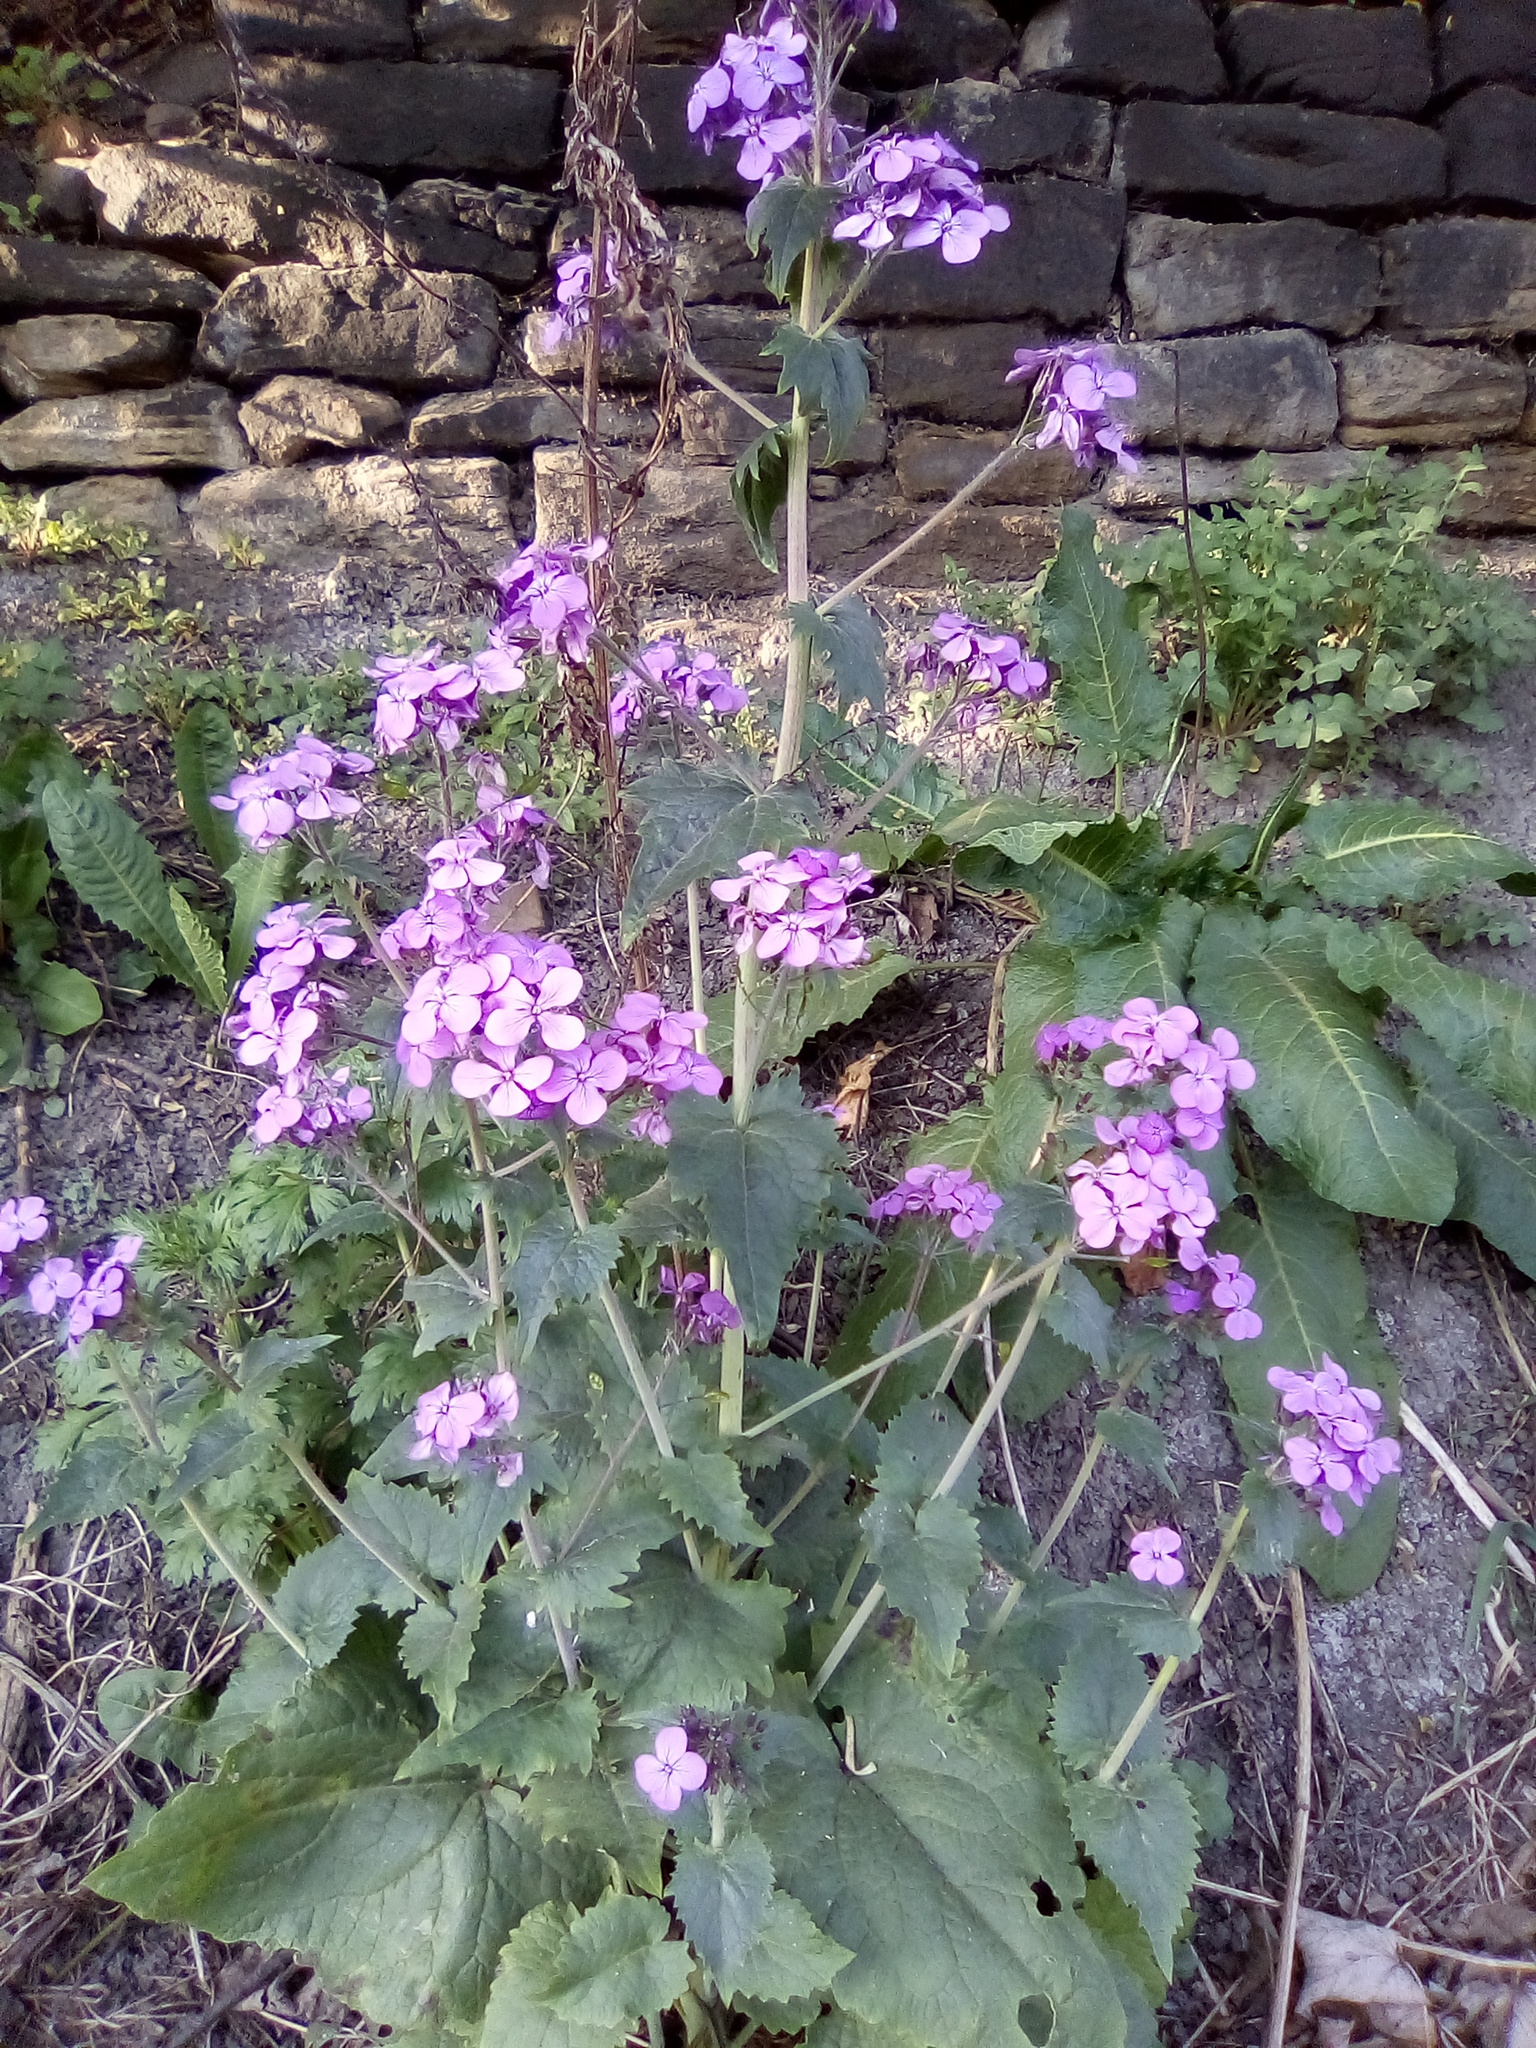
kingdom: Plantae
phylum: Tracheophyta
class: Magnoliopsida
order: Brassicales
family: Brassicaceae
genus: Lunaria
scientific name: Lunaria annua
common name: Honesty
